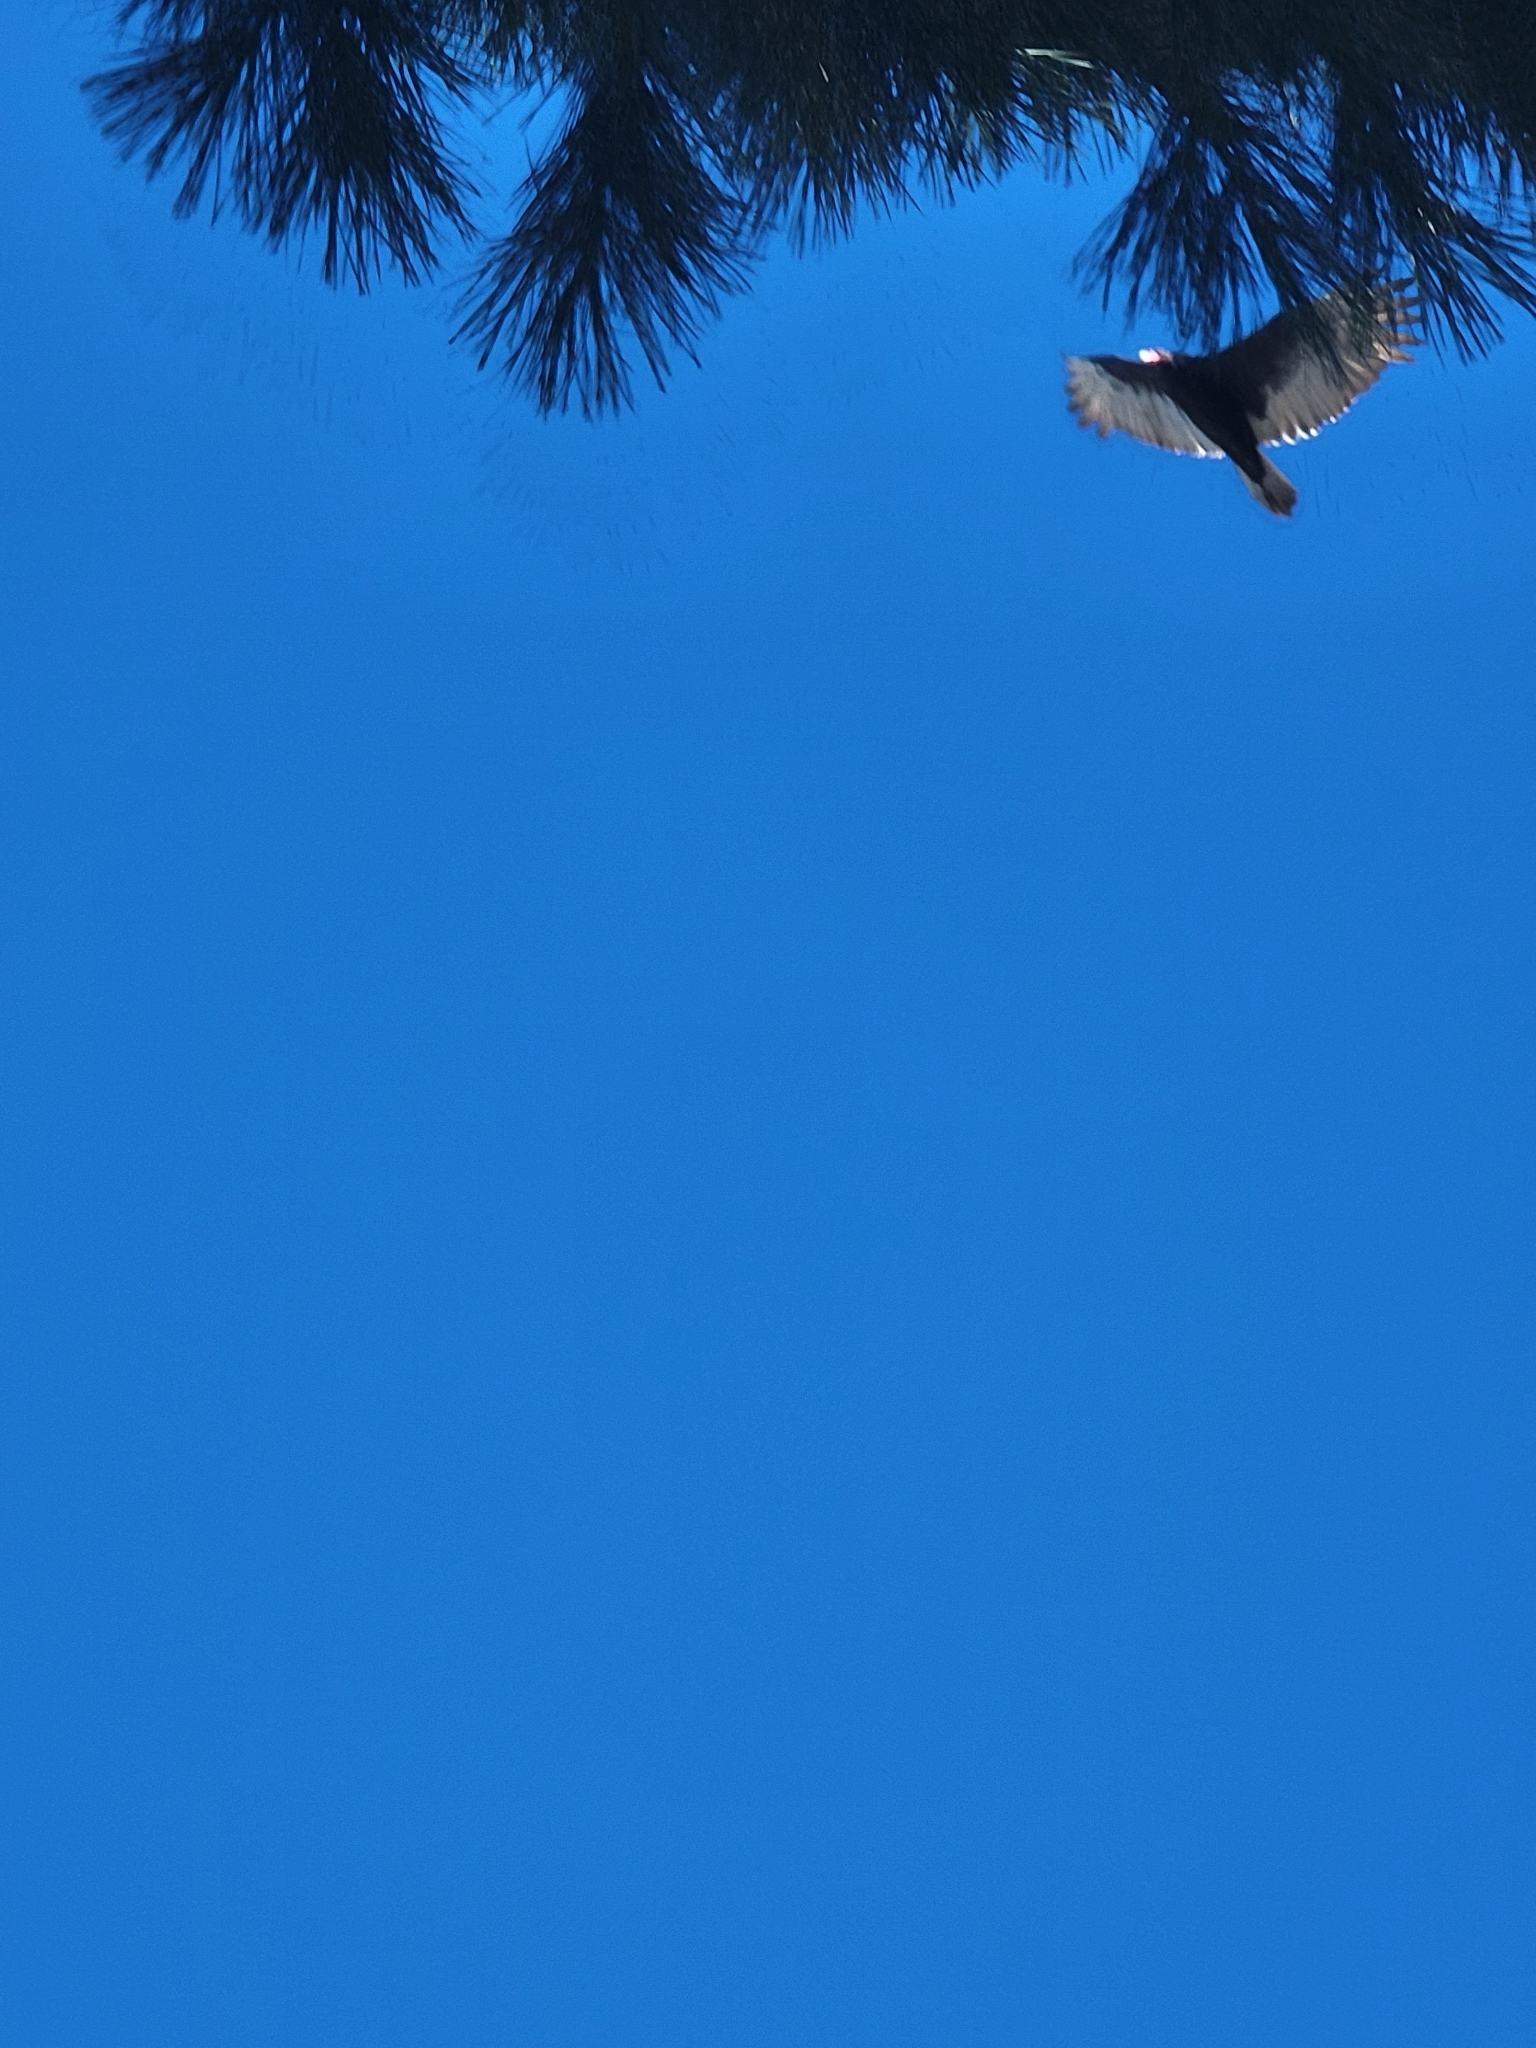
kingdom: Animalia
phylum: Chordata
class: Aves
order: Accipitriformes
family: Cathartidae
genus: Cathartes
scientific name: Cathartes aura
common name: Turkey vulture
